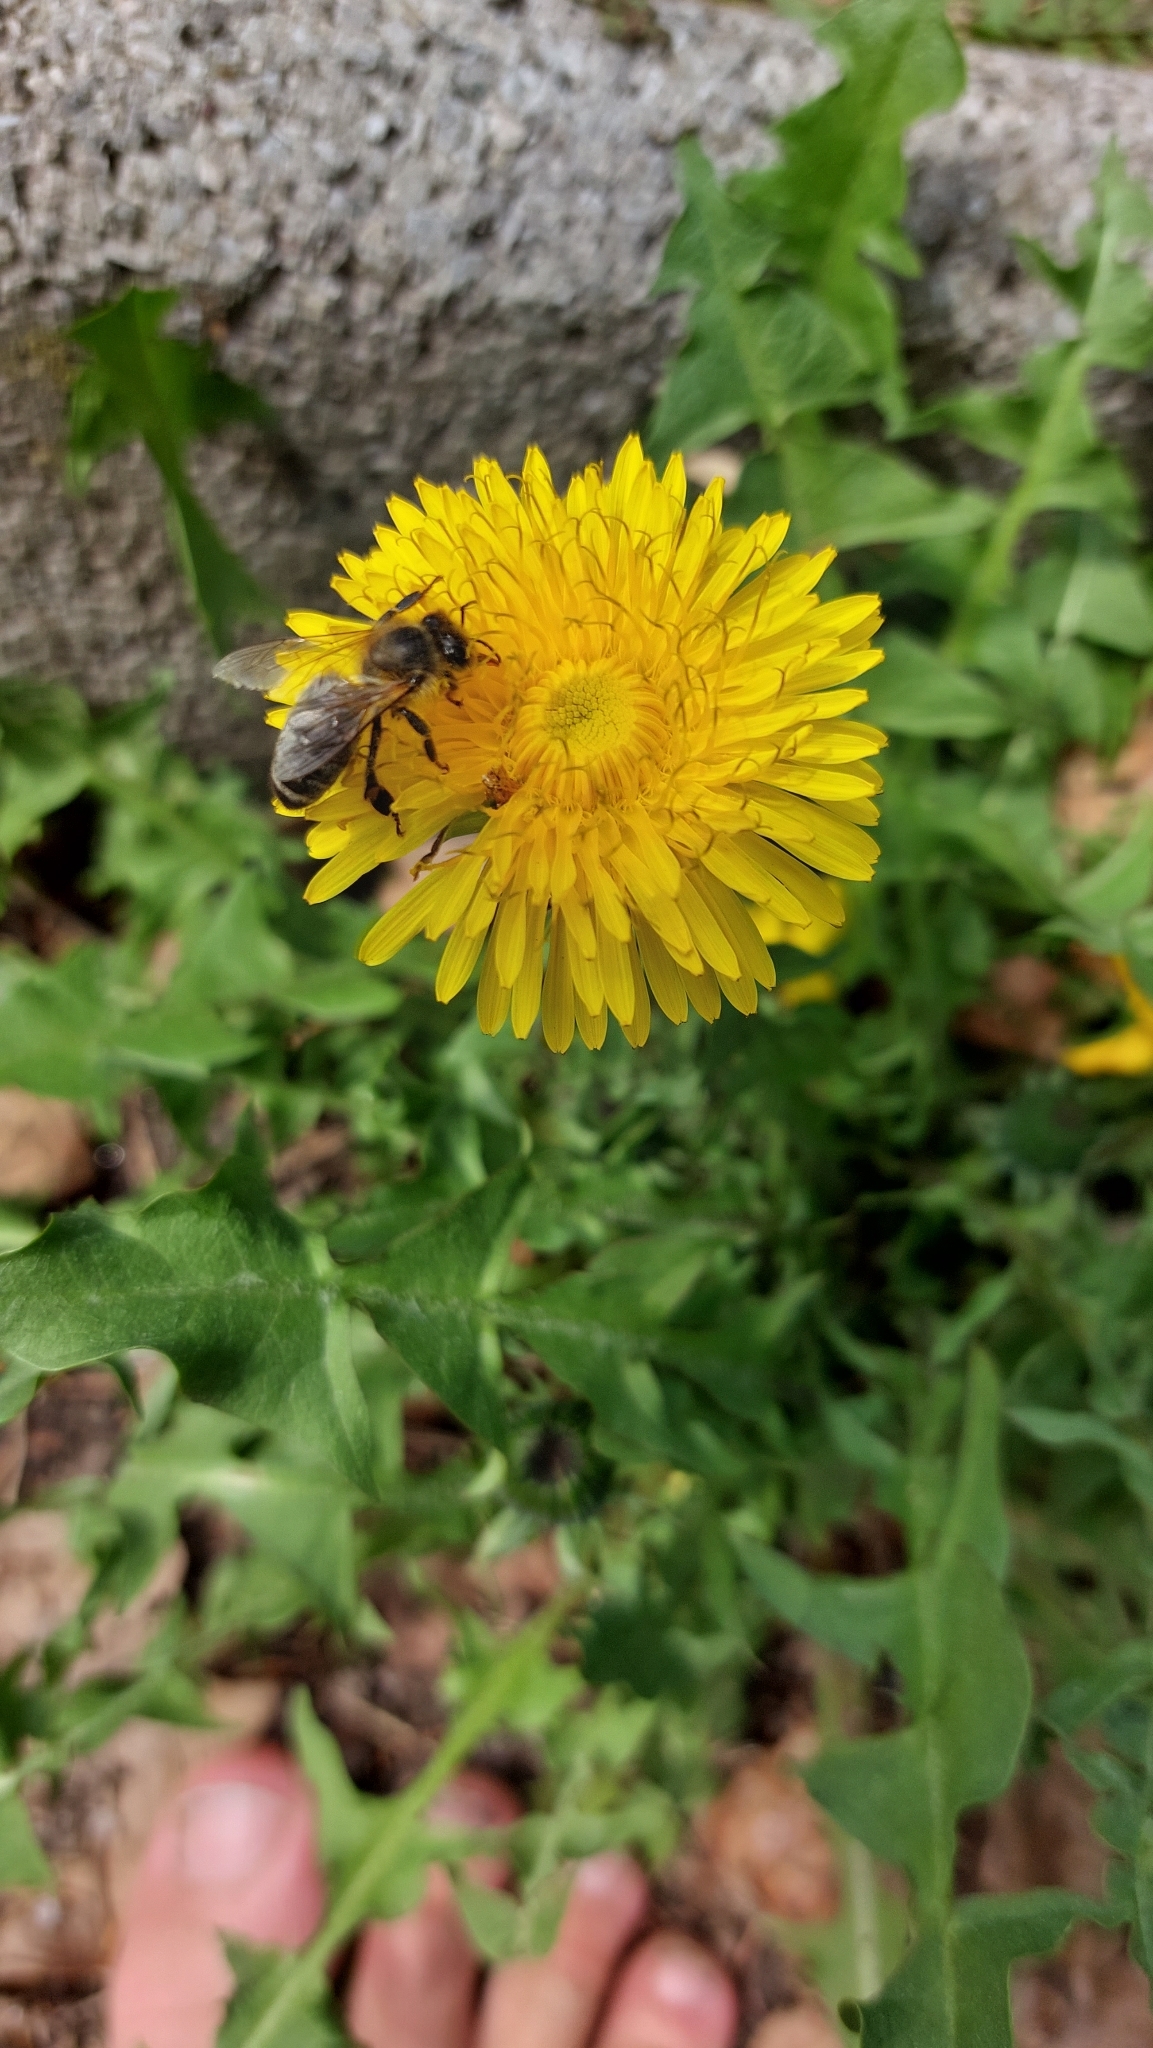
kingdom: Animalia
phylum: Arthropoda
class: Insecta
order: Hymenoptera
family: Apidae
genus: Apis
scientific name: Apis mellifera
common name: Honey bee
